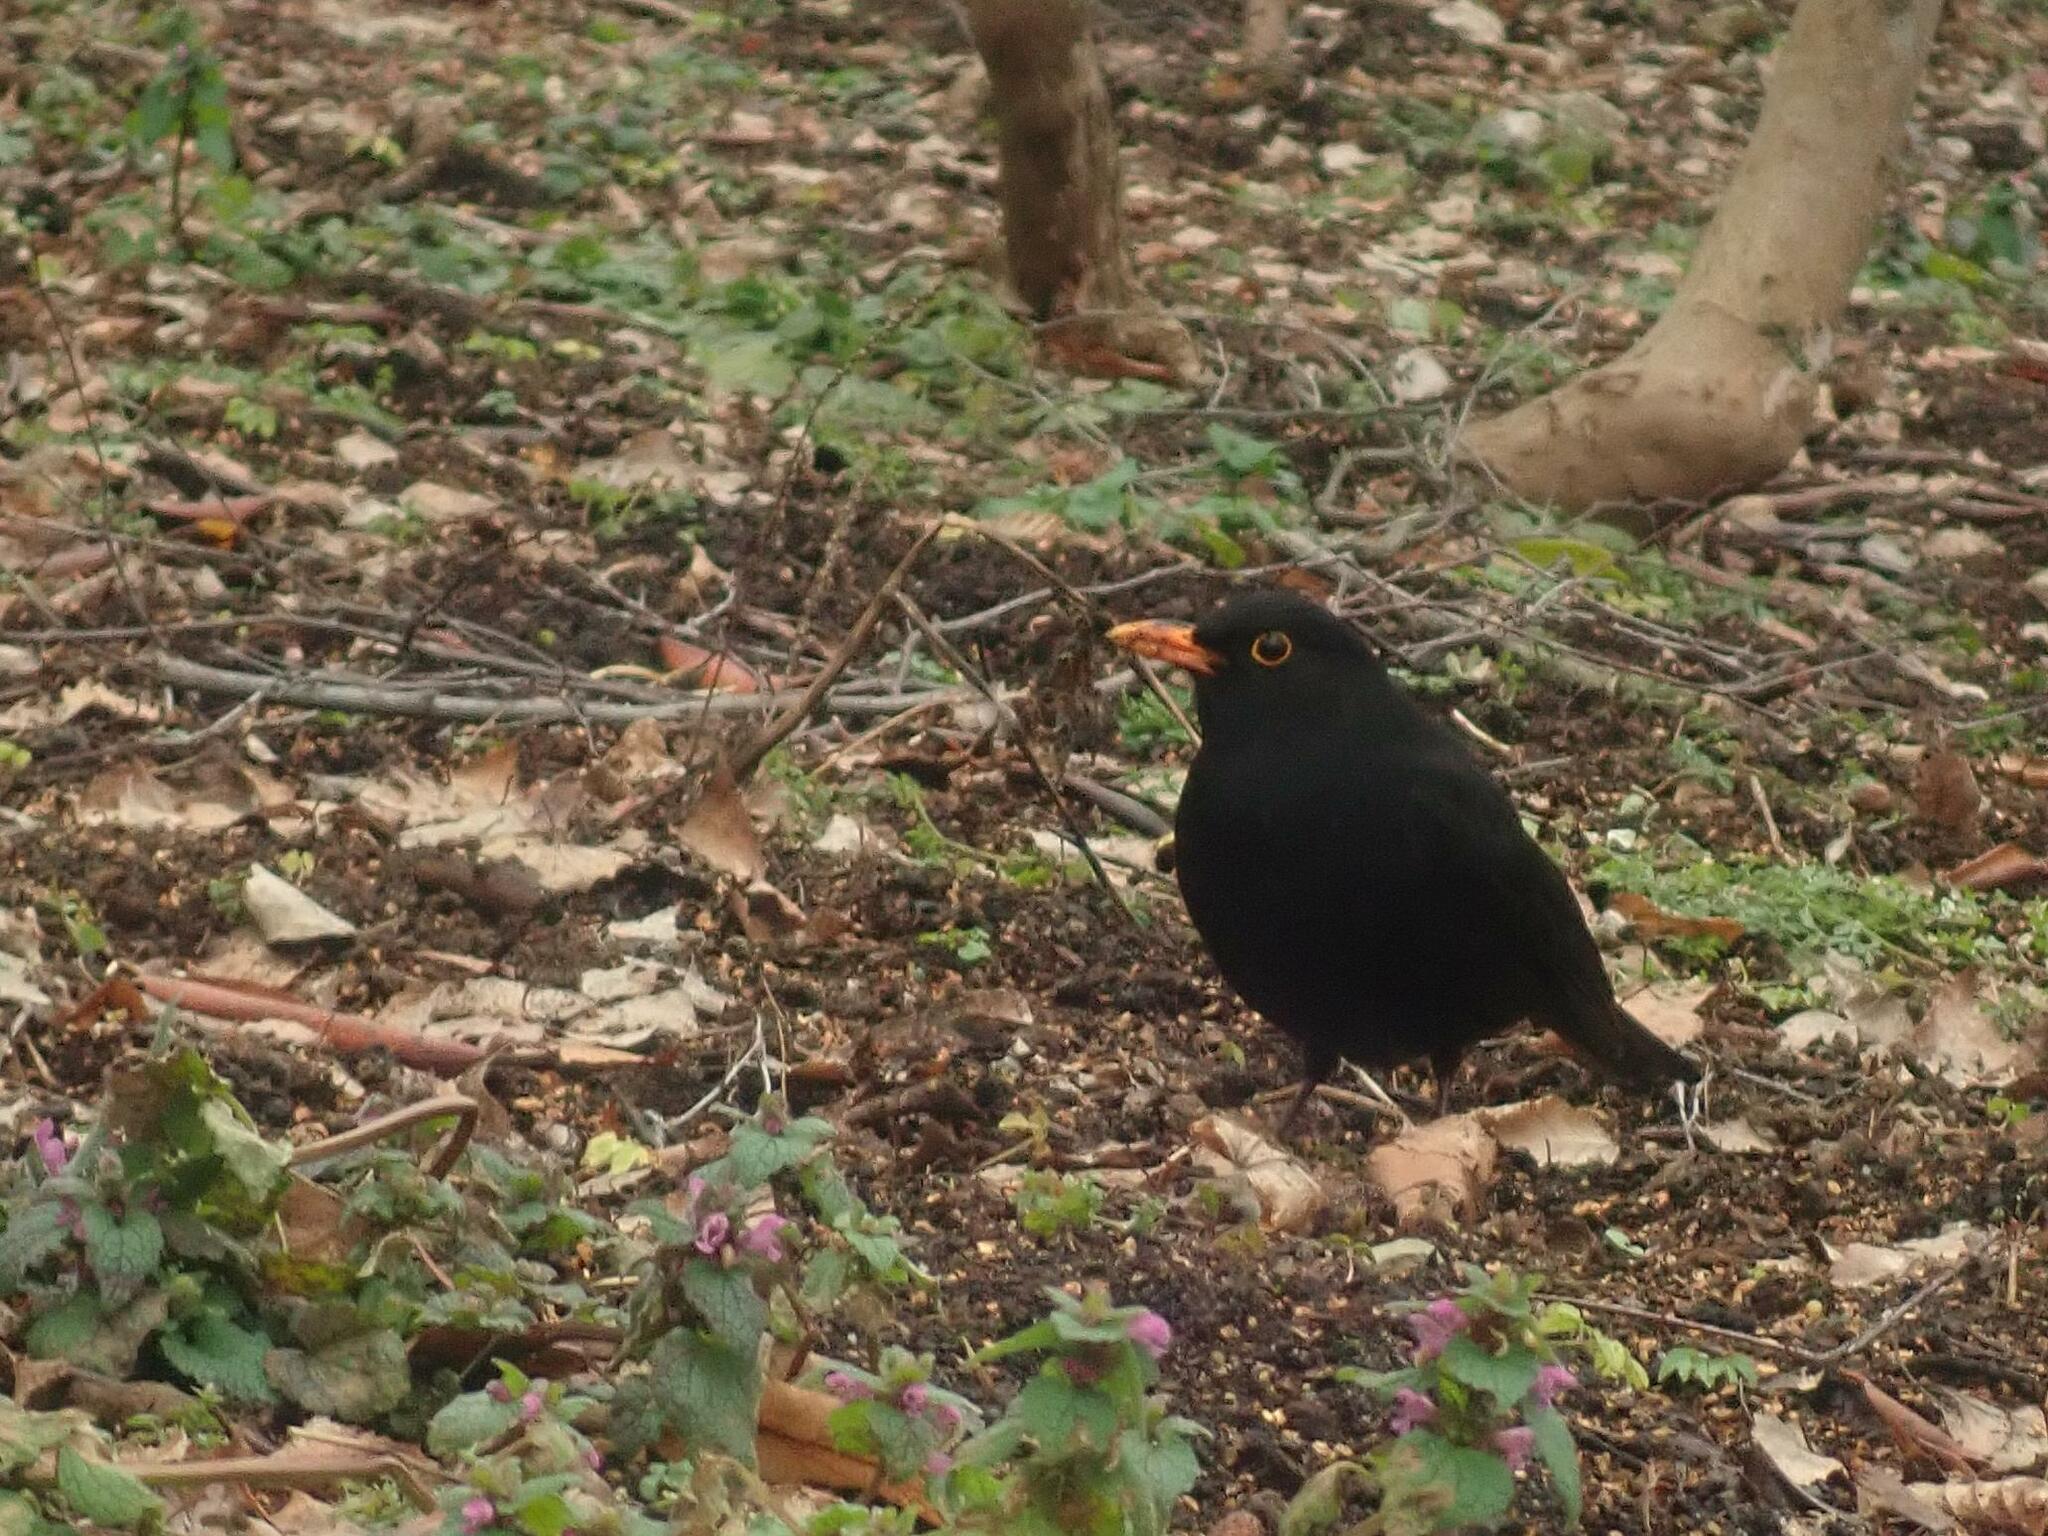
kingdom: Animalia
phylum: Chordata
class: Aves
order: Passeriformes
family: Turdidae
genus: Turdus
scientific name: Turdus merula
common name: Common blackbird
